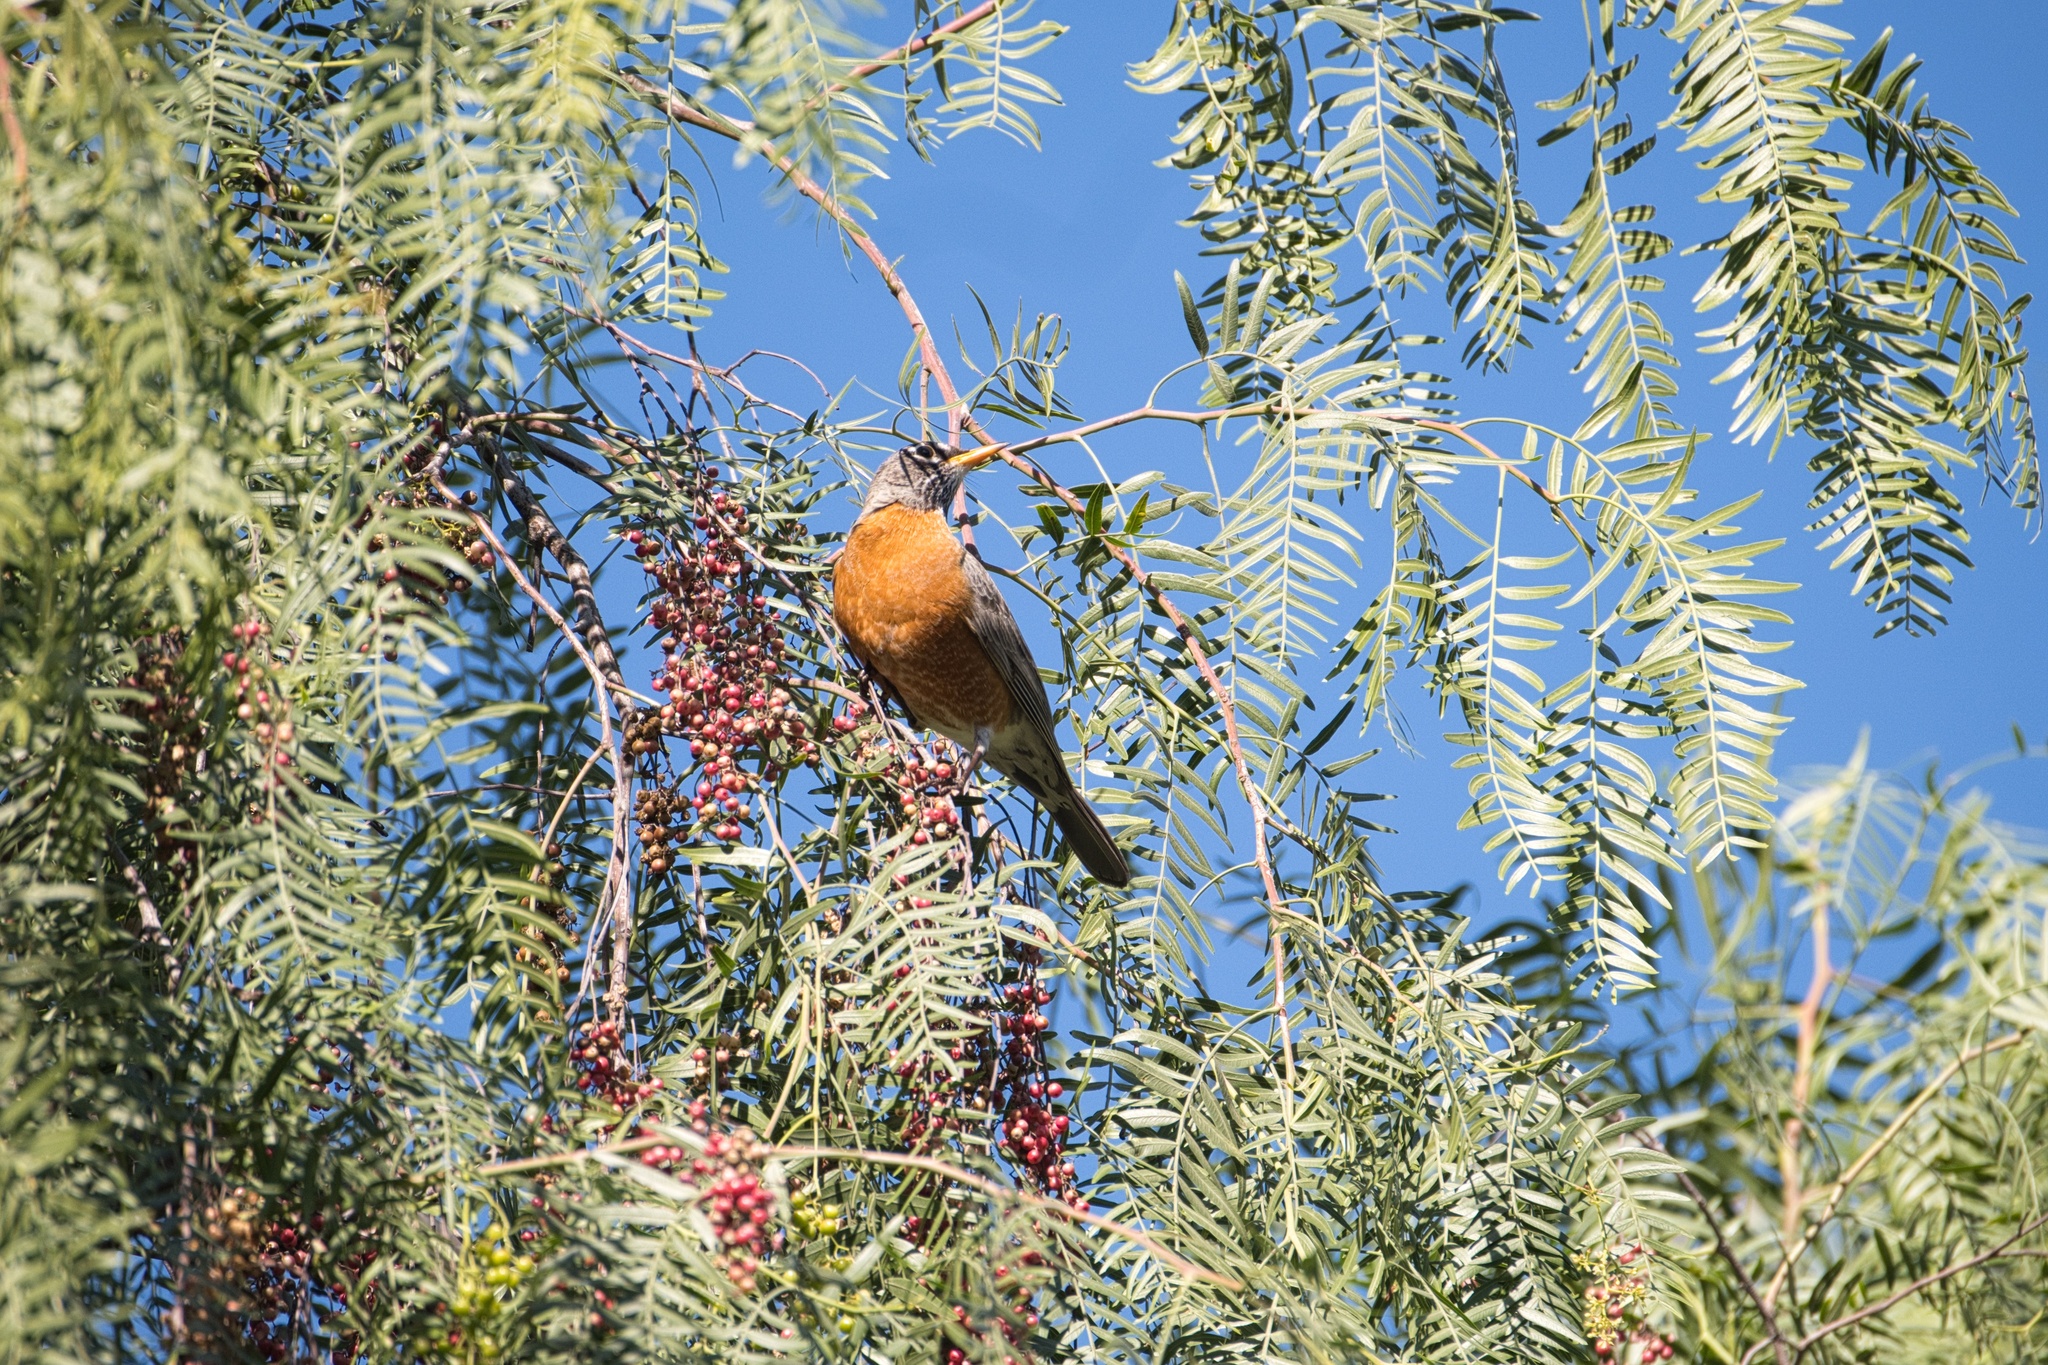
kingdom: Animalia
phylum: Chordata
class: Aves
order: Passeriformes
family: Turdidae
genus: Turdus
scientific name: Turdus migratorius
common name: American robin
